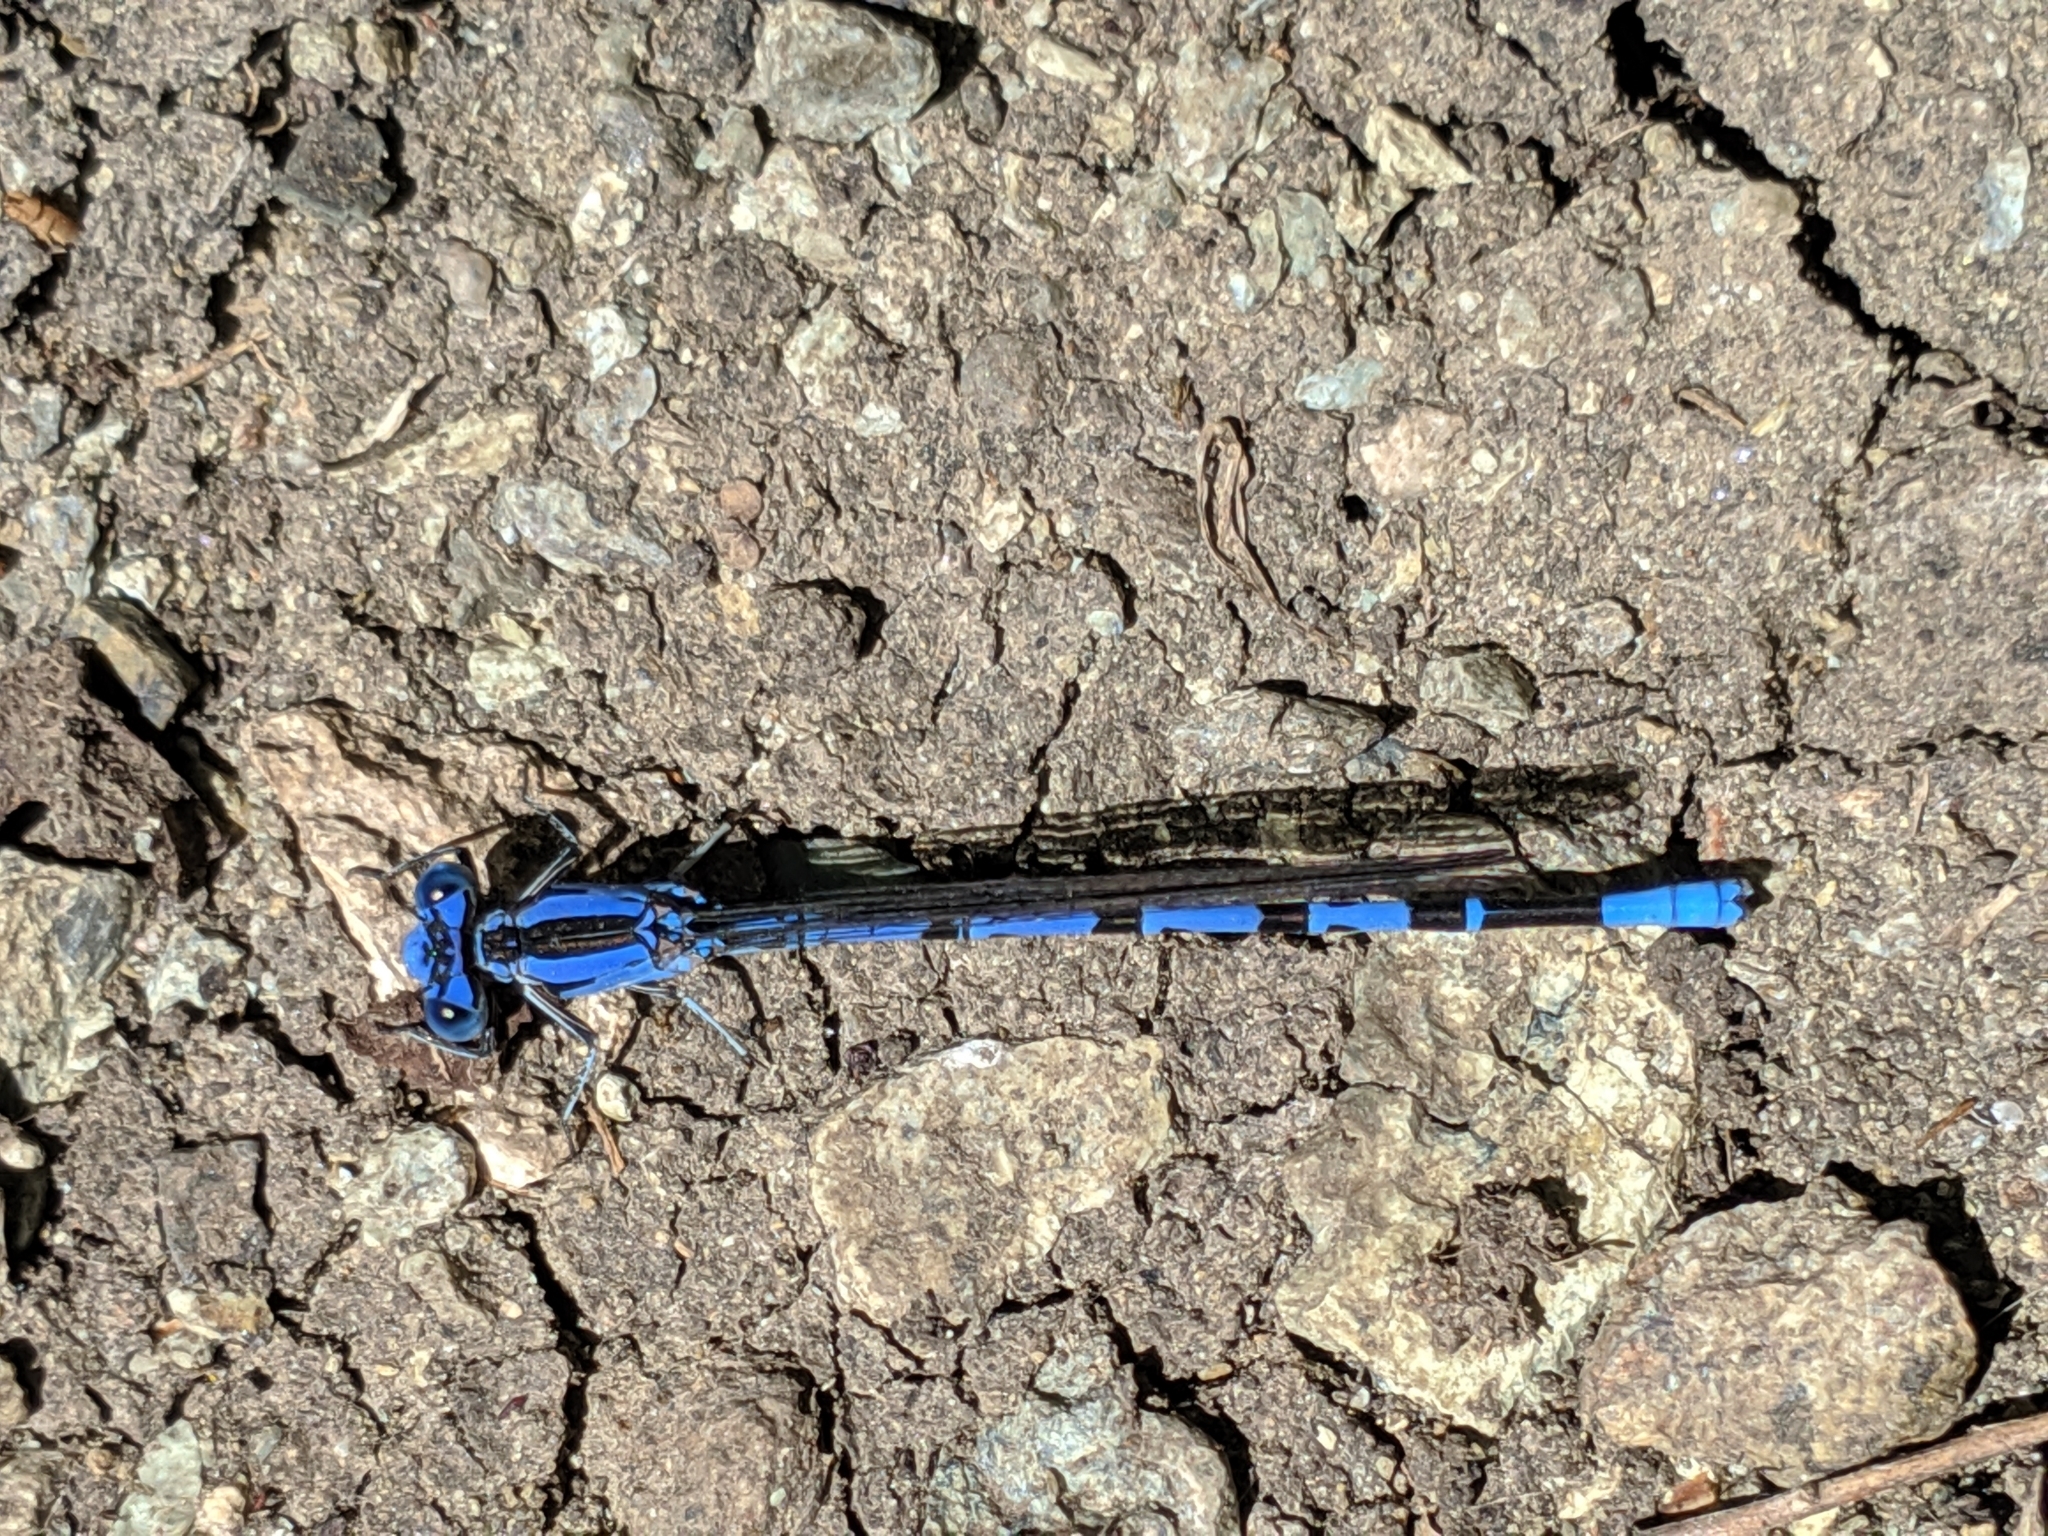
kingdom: Animalia
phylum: Arthropoda
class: Insecta
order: Odonata
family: Coenagrionidae
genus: Argia
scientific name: Argia vivida
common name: Vivid dancer
